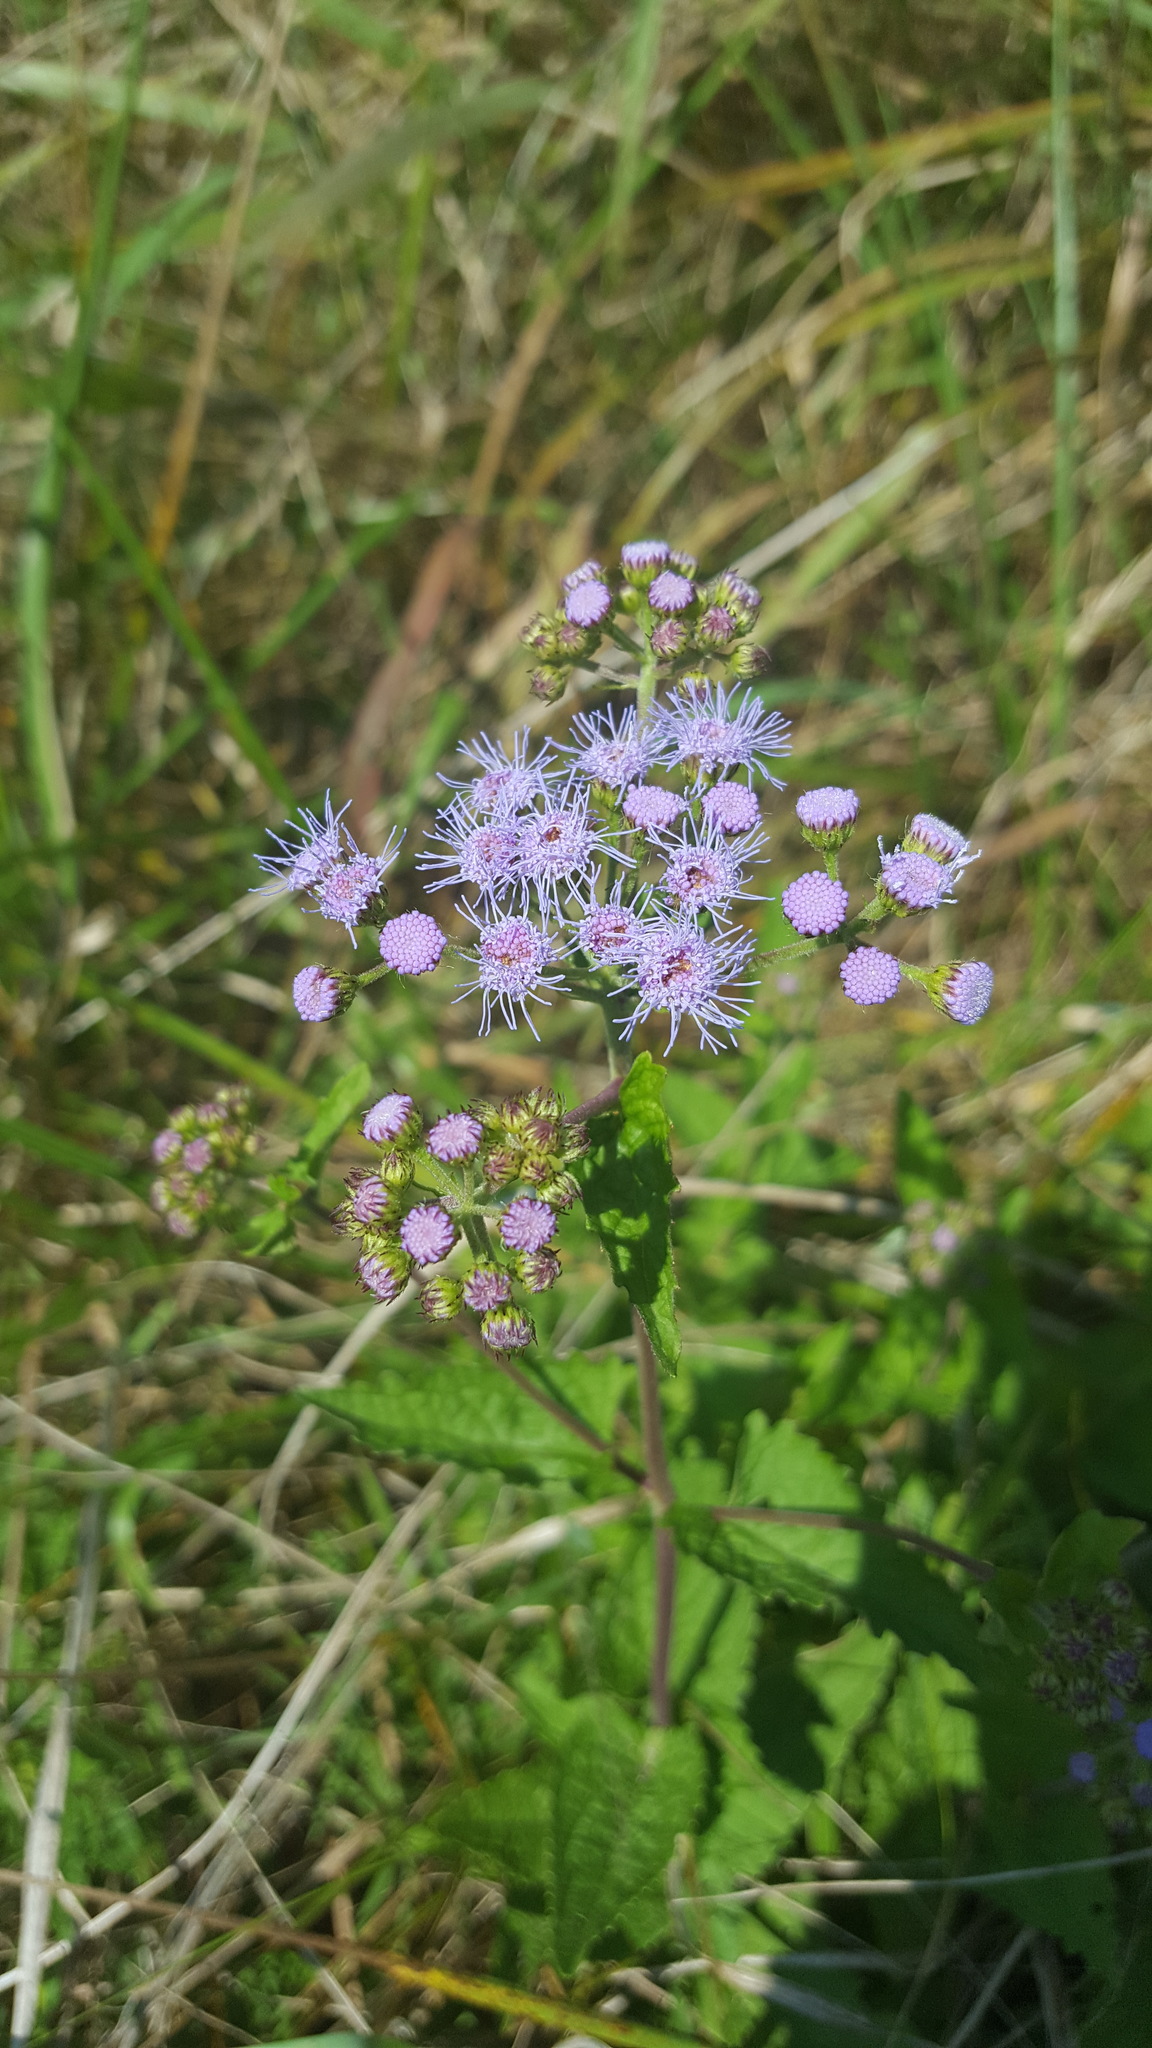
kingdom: Plantae
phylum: Tracheophyta
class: Magnoliopsida
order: Asterales
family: Asteraceae
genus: Conoclinium
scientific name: Conoclinium coelestinum
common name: Blue mistflower
